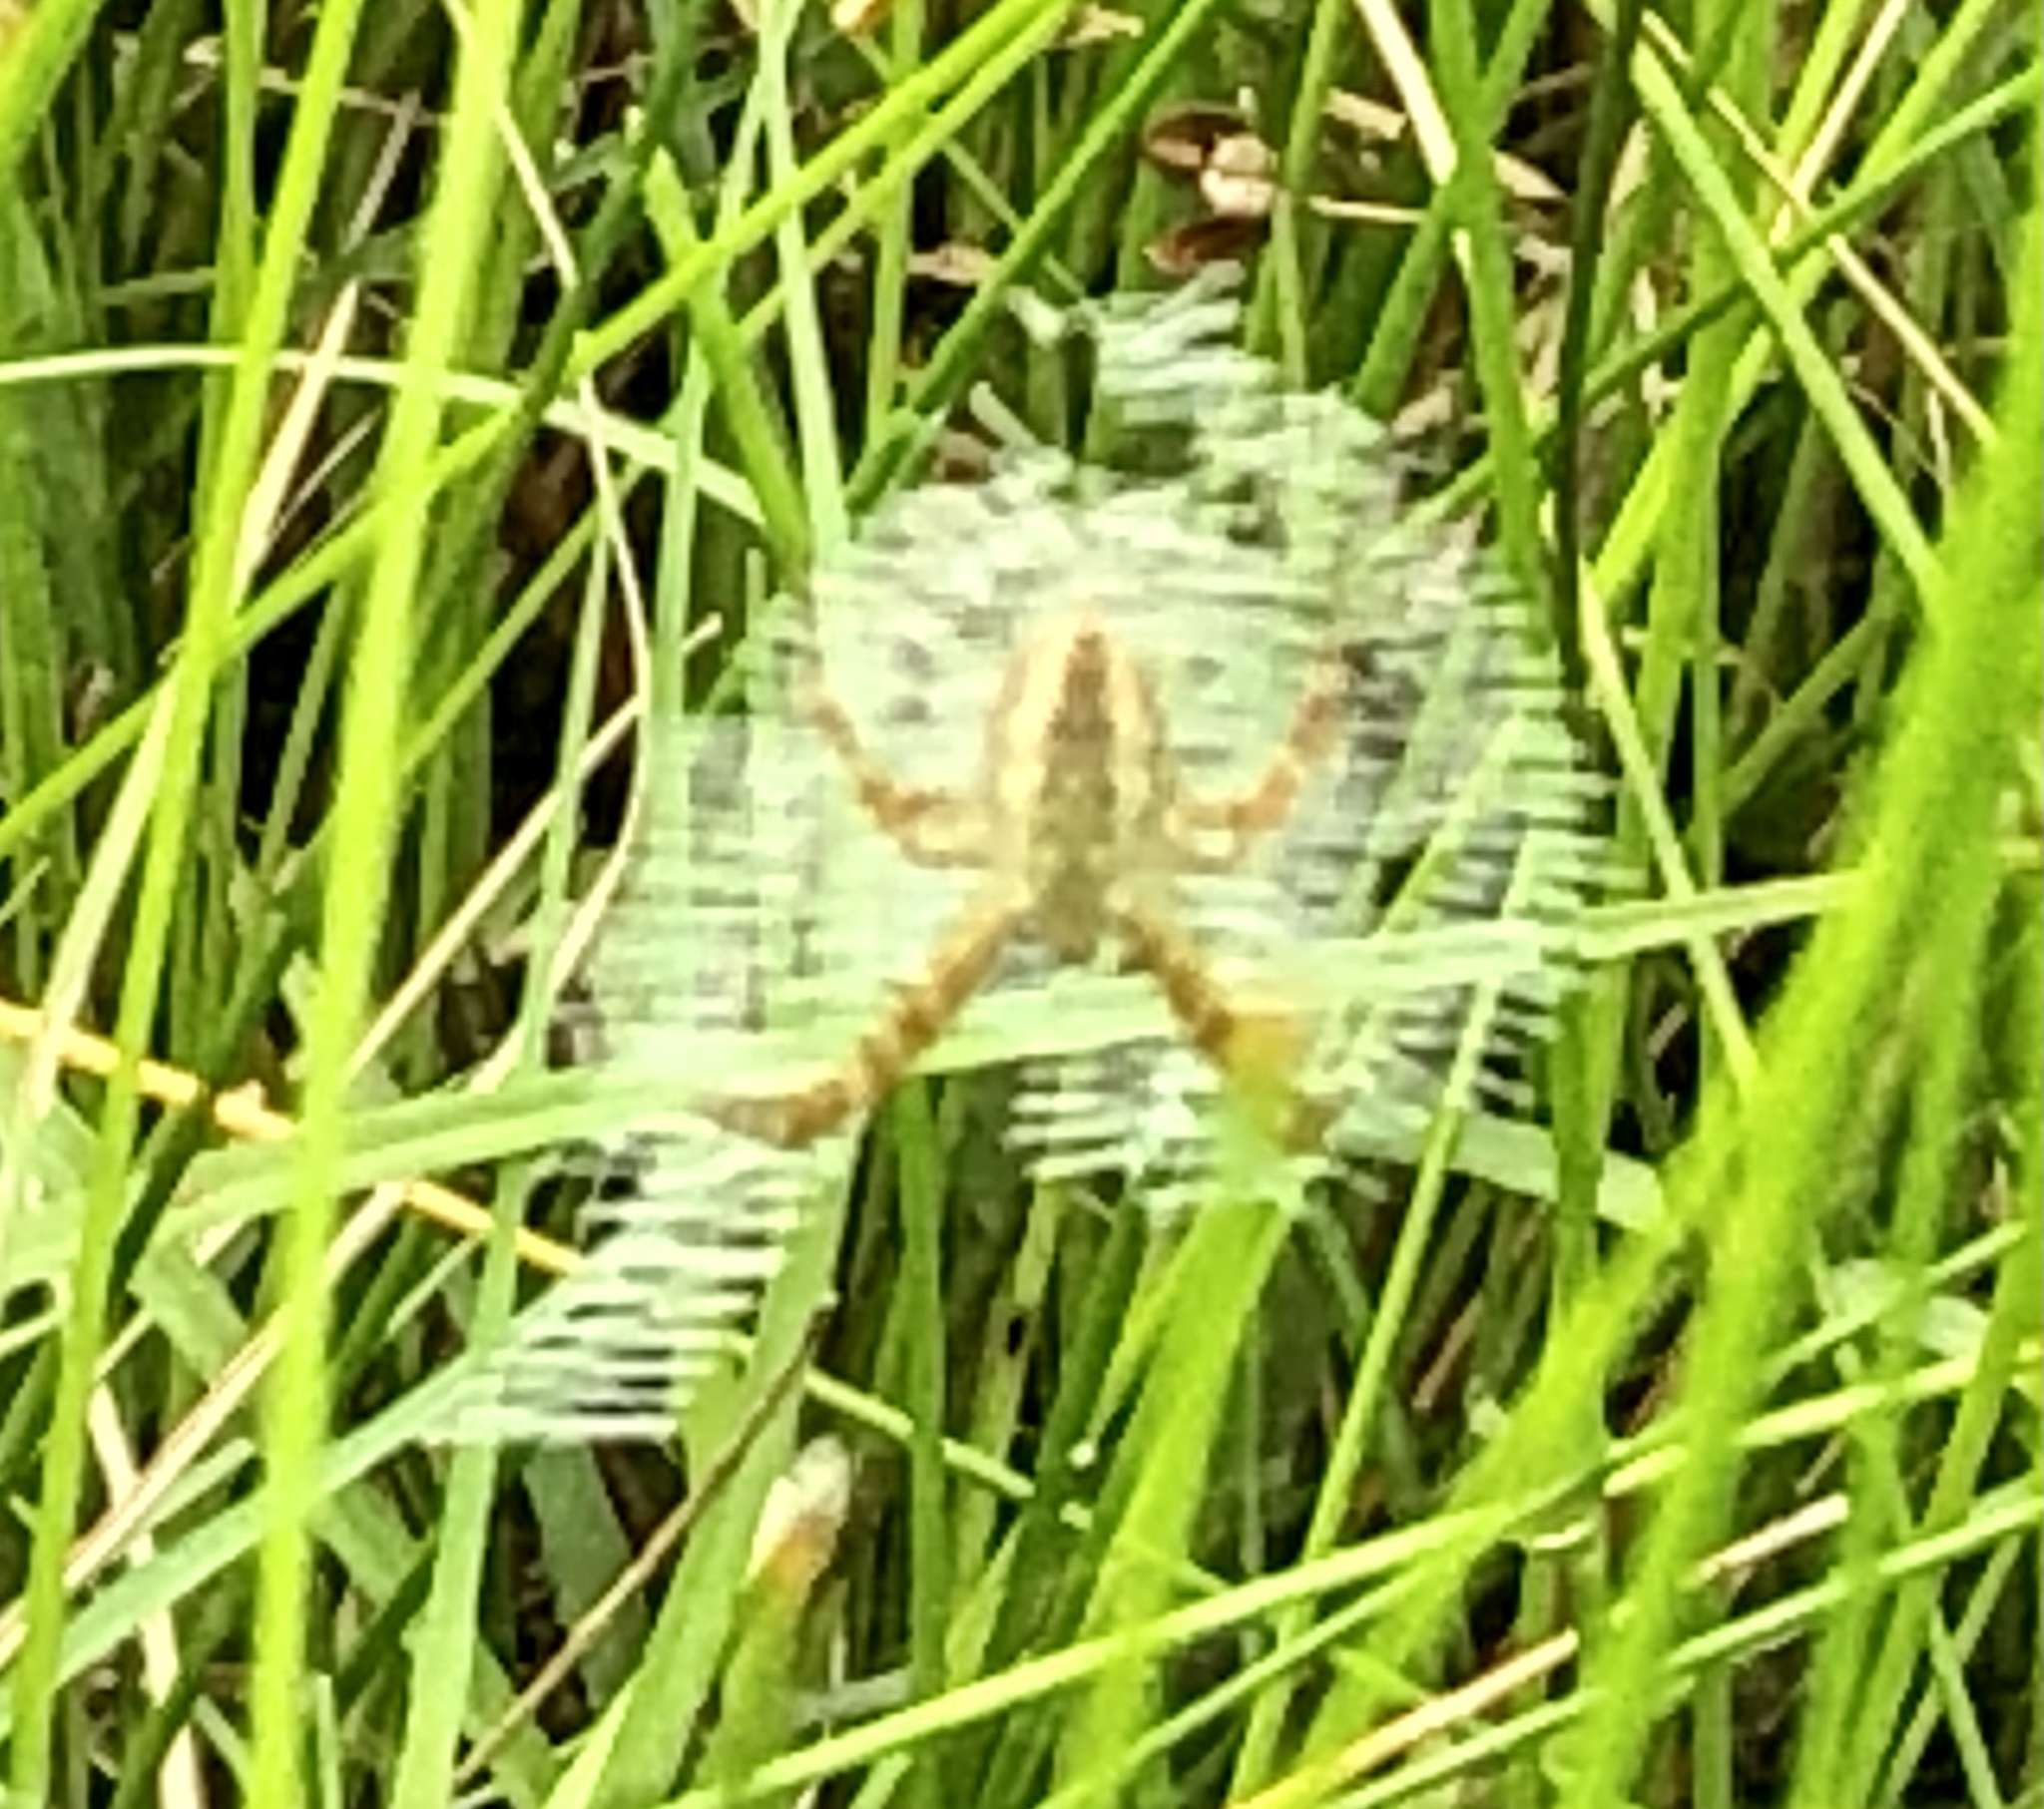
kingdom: Animalia
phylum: Arthropoda
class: Arachnida
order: Araneae
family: Araneidae
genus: Argiope
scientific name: Argiope aurantia
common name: Orb weavers
